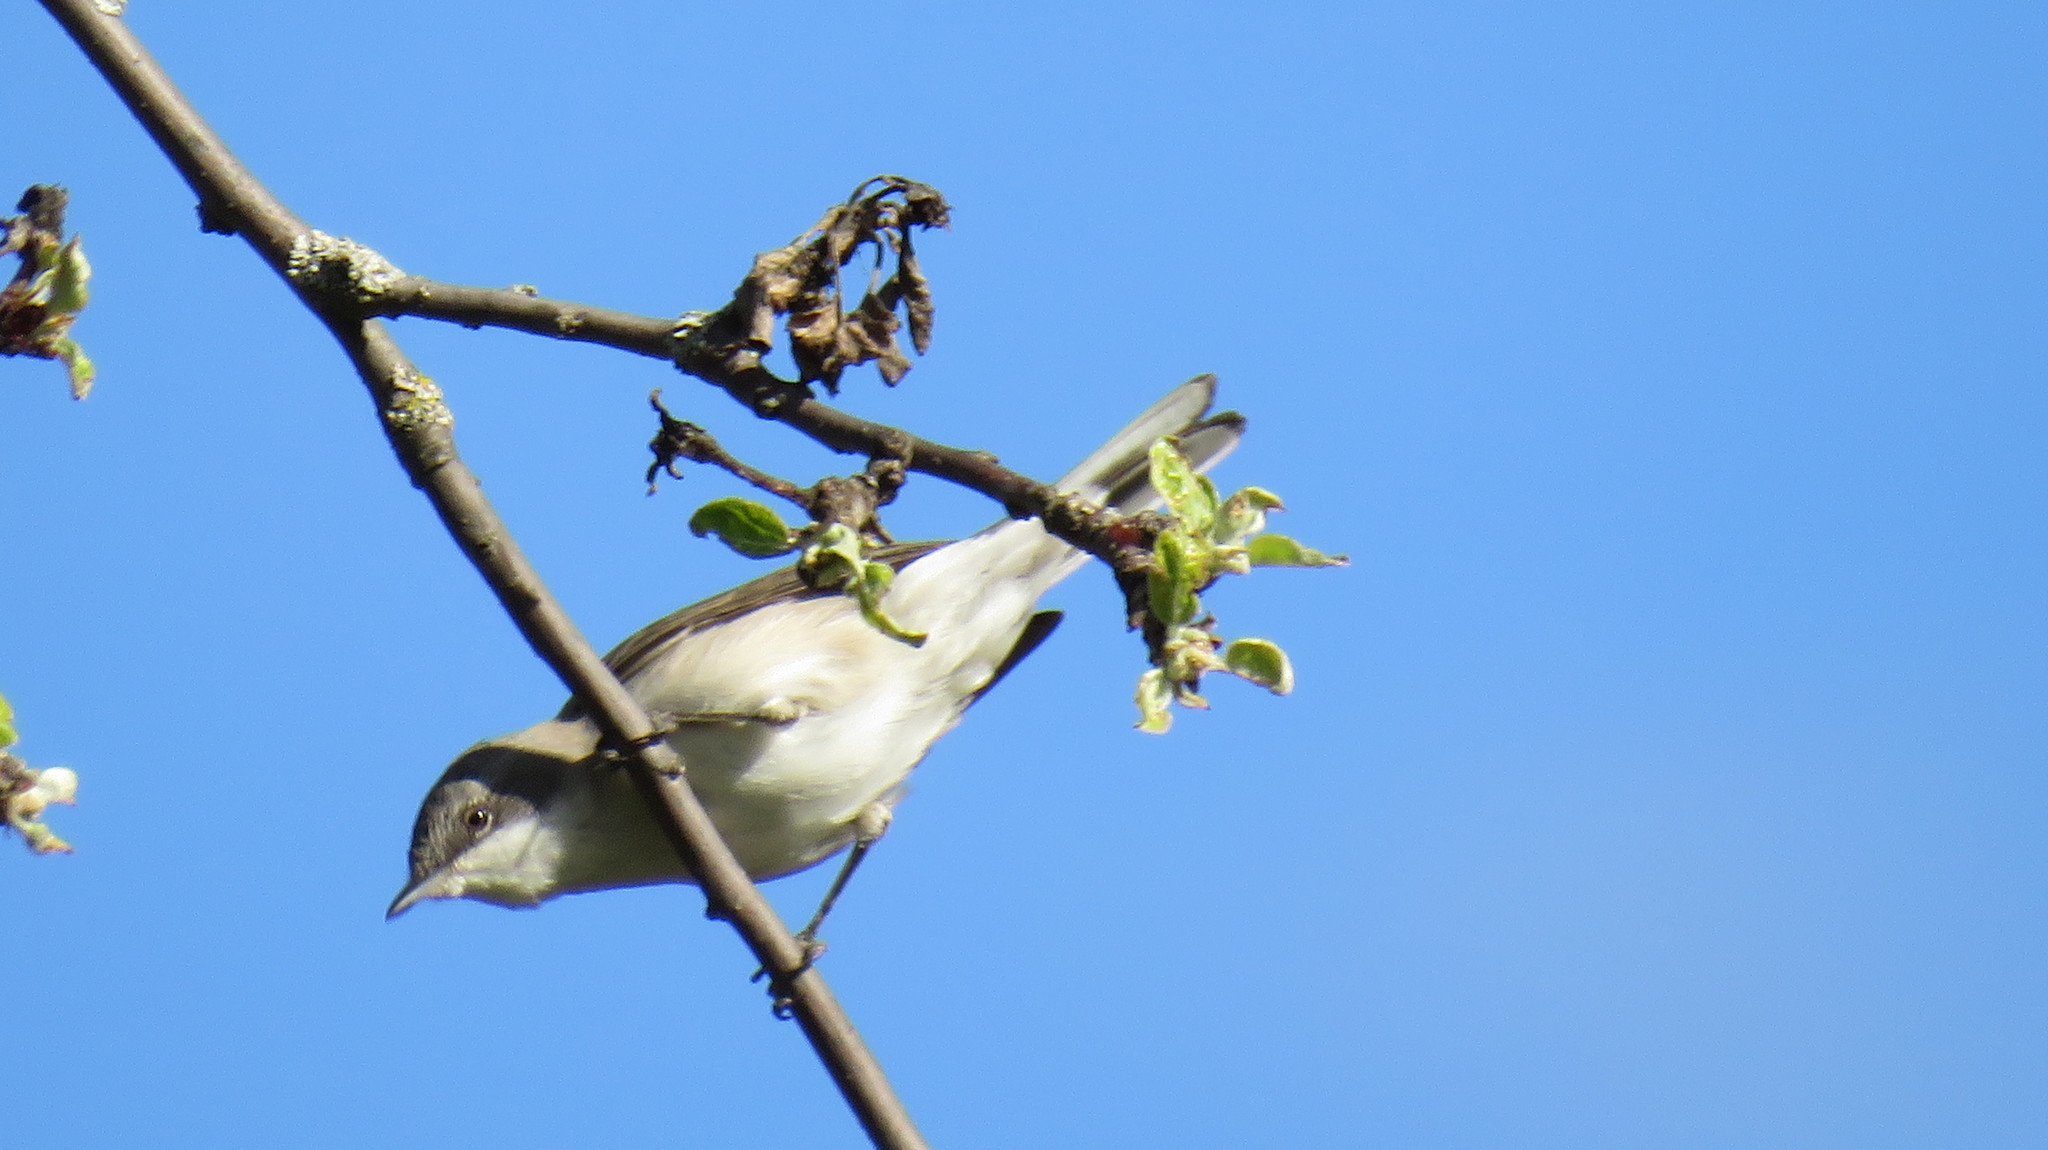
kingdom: Animalia
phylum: Chordata
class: Aves
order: Passeriformes
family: Sylviidae
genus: Sylvia
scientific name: Sylvia curruca
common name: Lesser whitethroat
